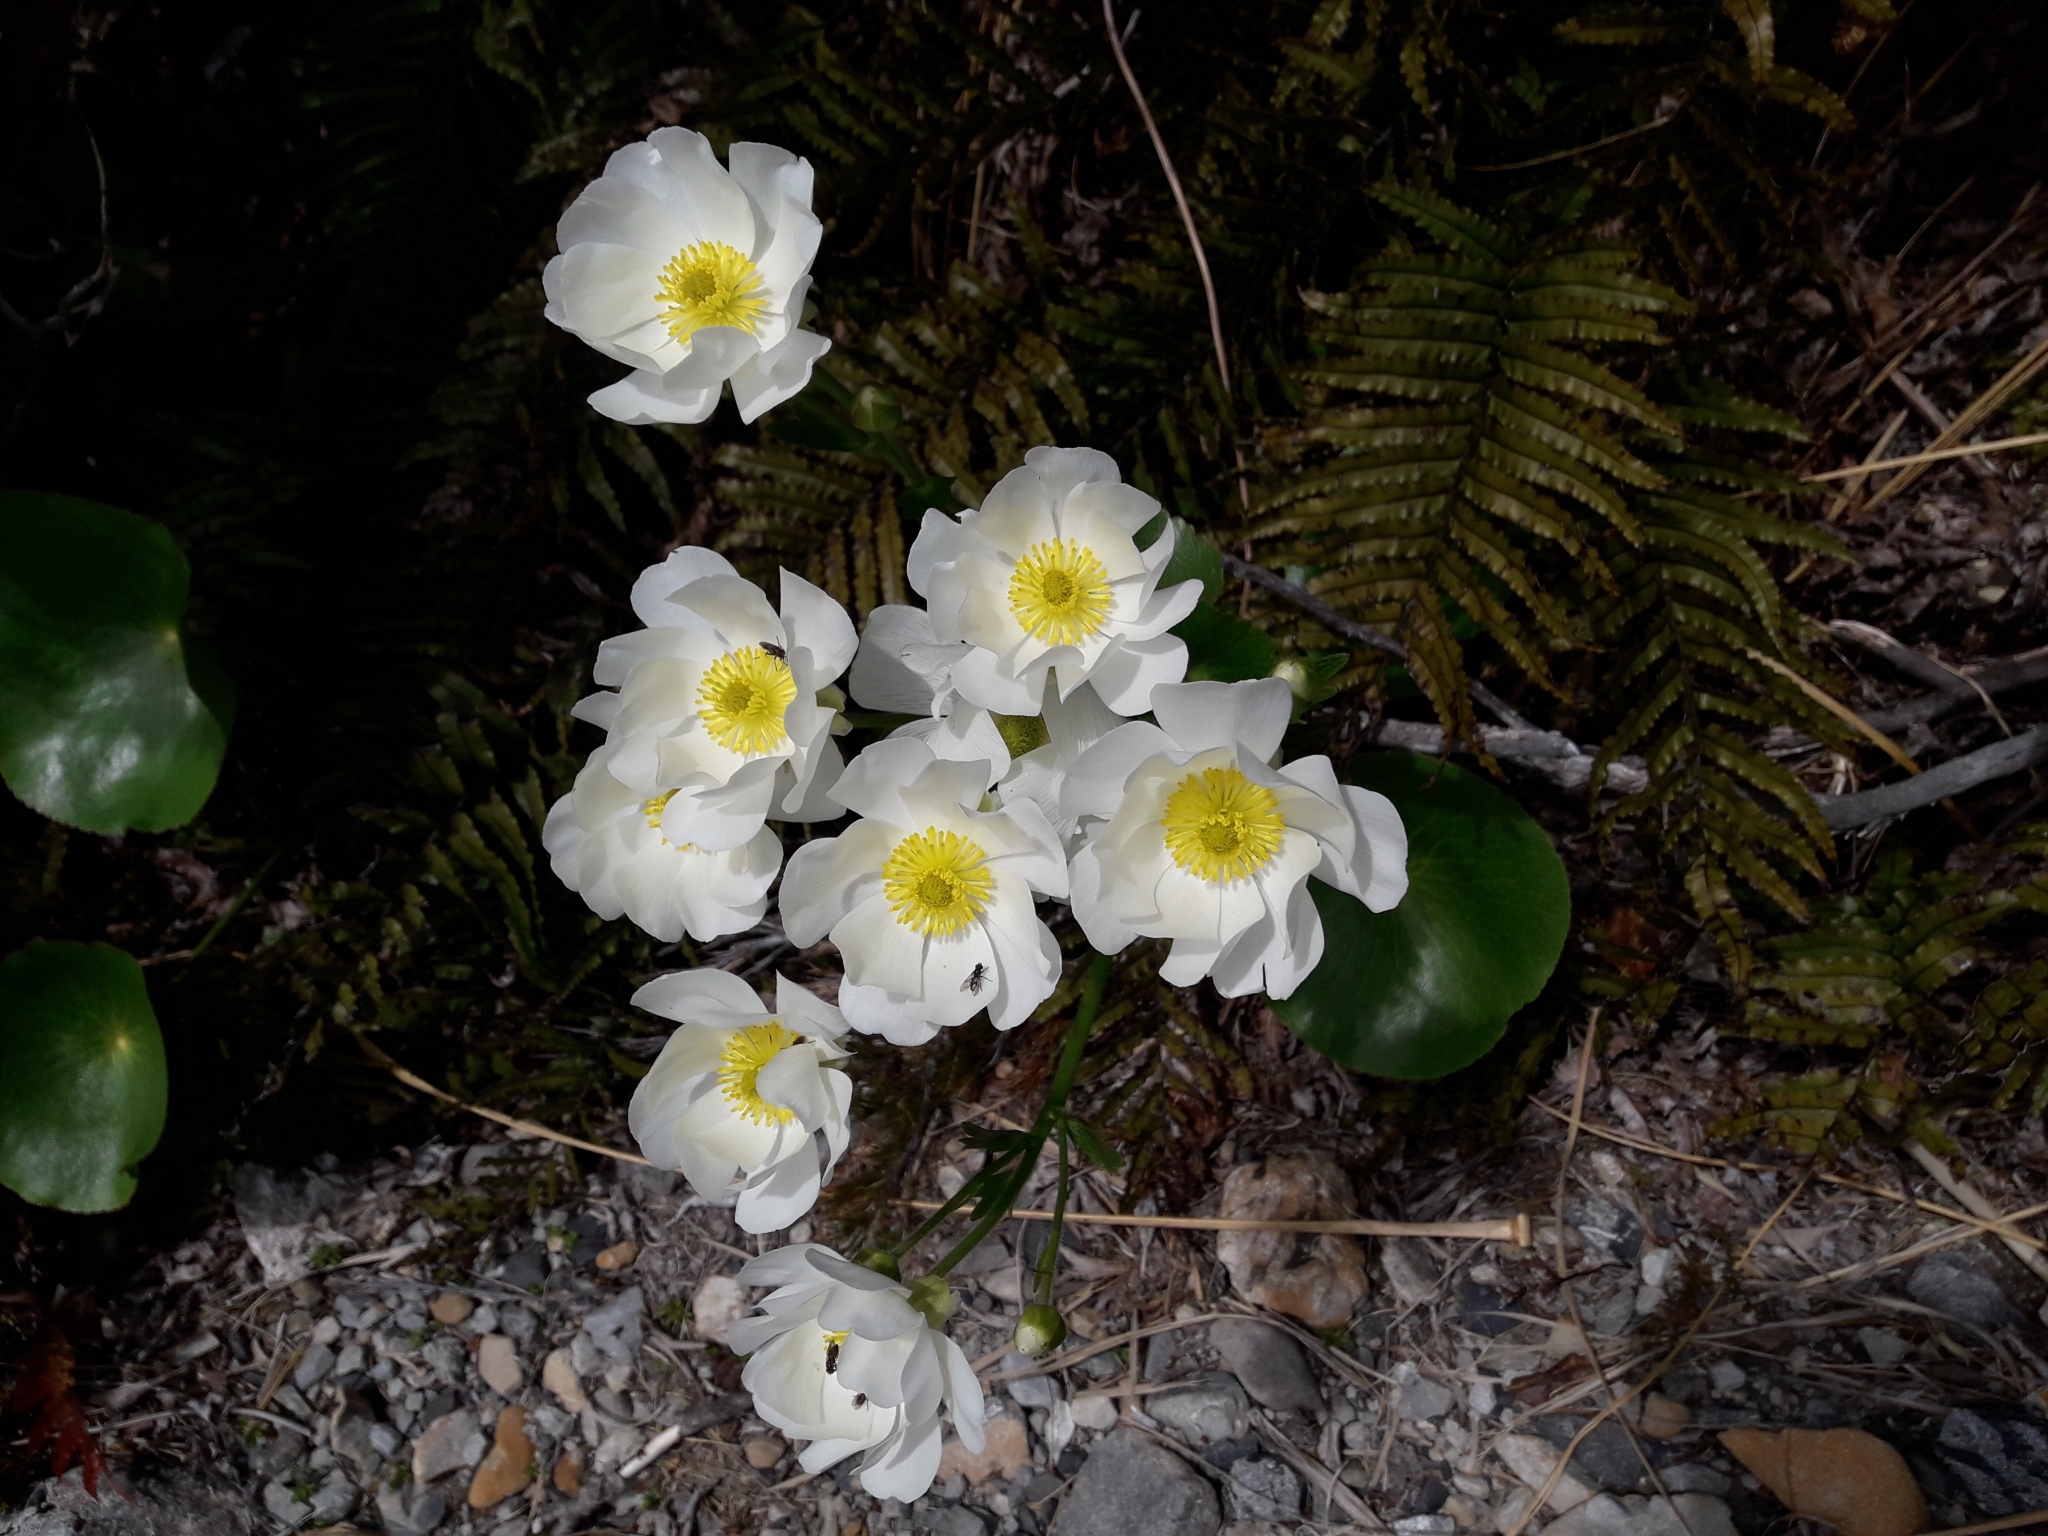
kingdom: Plantae
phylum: Tracheophyta
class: Magnoliopsida
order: Ranunculales
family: Ranunculaceae
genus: Ranunculus
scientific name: Ranunculus lyallii
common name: Mountain-lily
